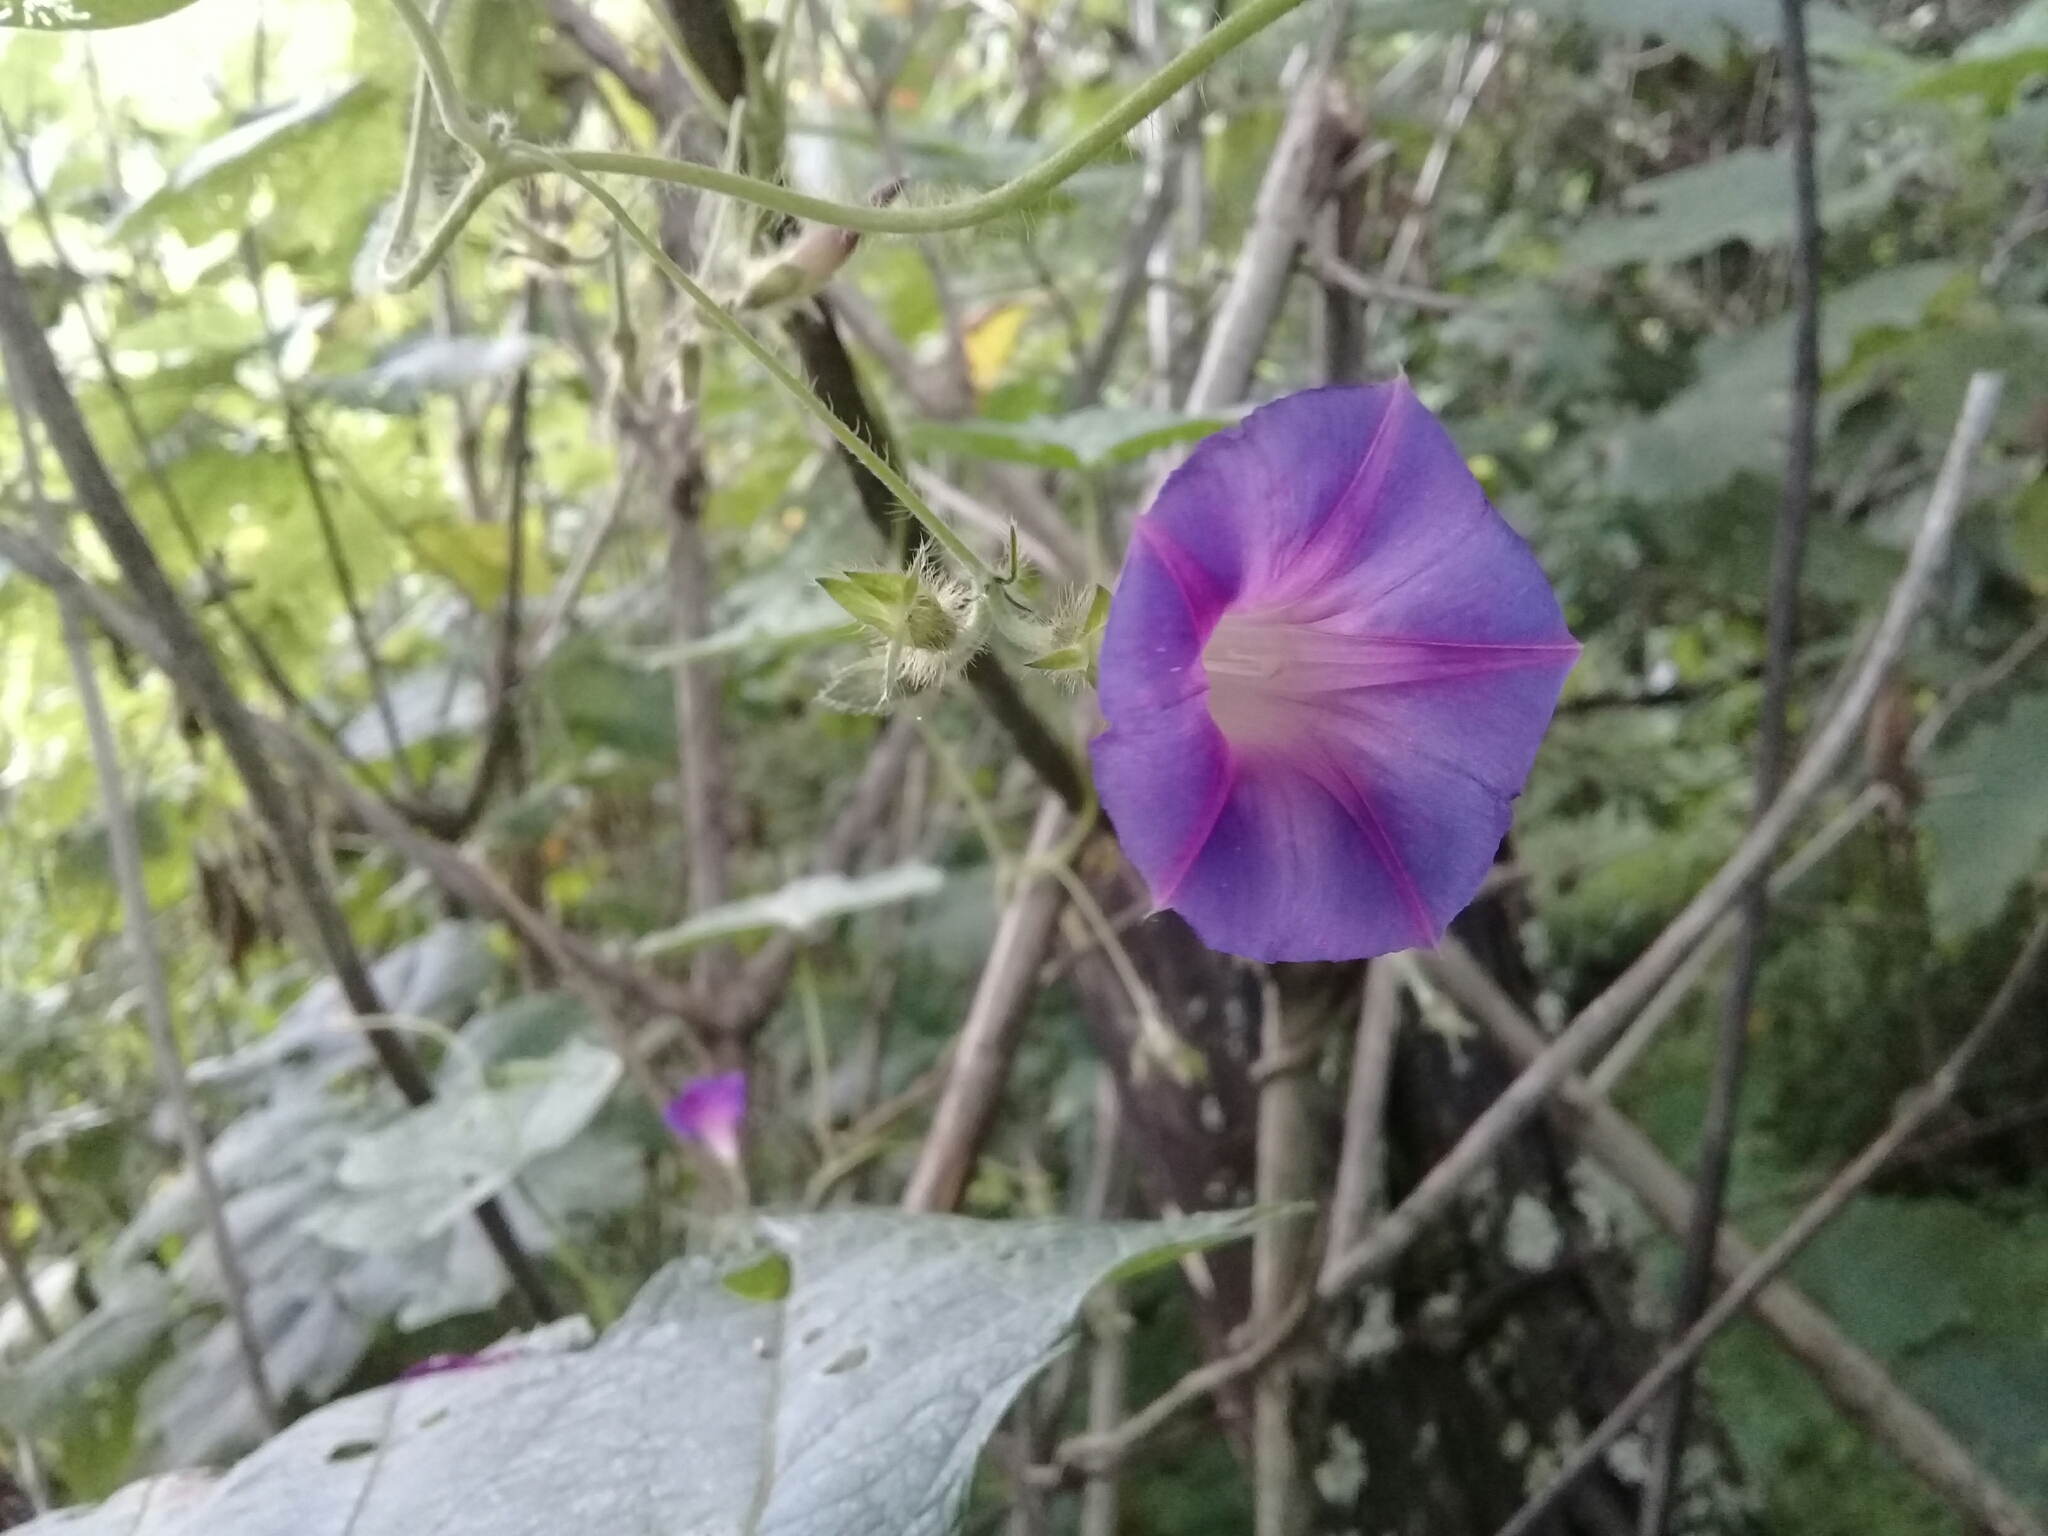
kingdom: Plantae
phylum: Tracheophyta
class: Magnoliopsida
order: Solanales
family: Convolvulaceae
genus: Ipomoea
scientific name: Ipomoea purpurea
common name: Common morning-glory
